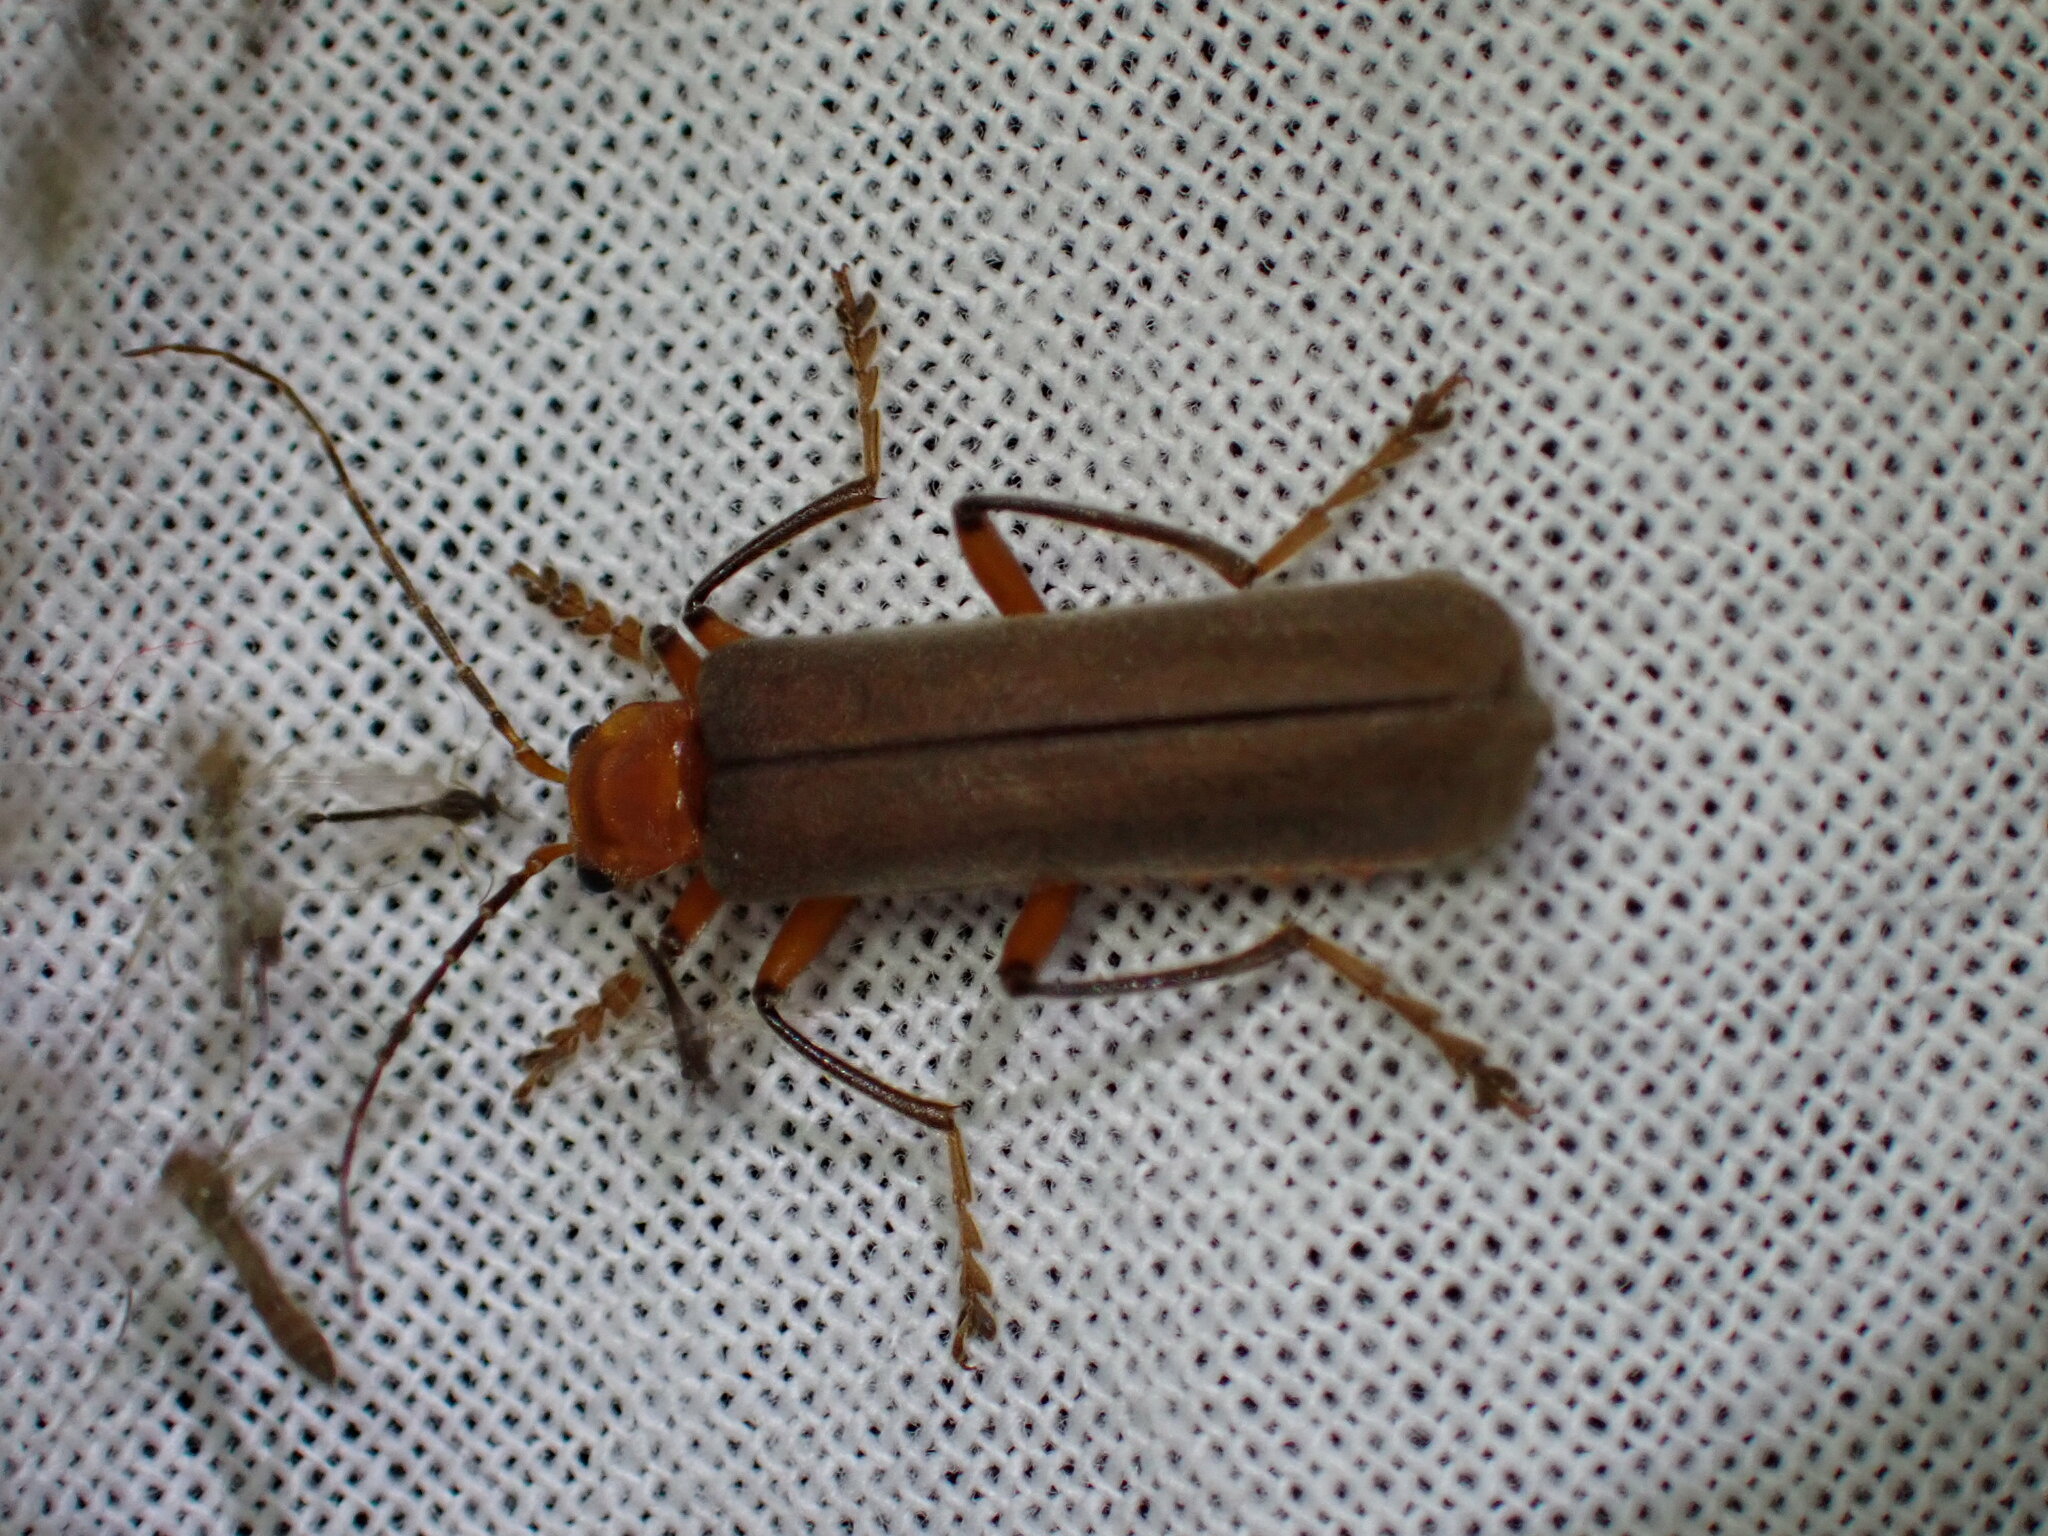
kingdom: Animalia
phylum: Arthropoda
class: Insecta
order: Coleoptera
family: Cantharidae
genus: Pacificanthia
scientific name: Pacificanthia consors
